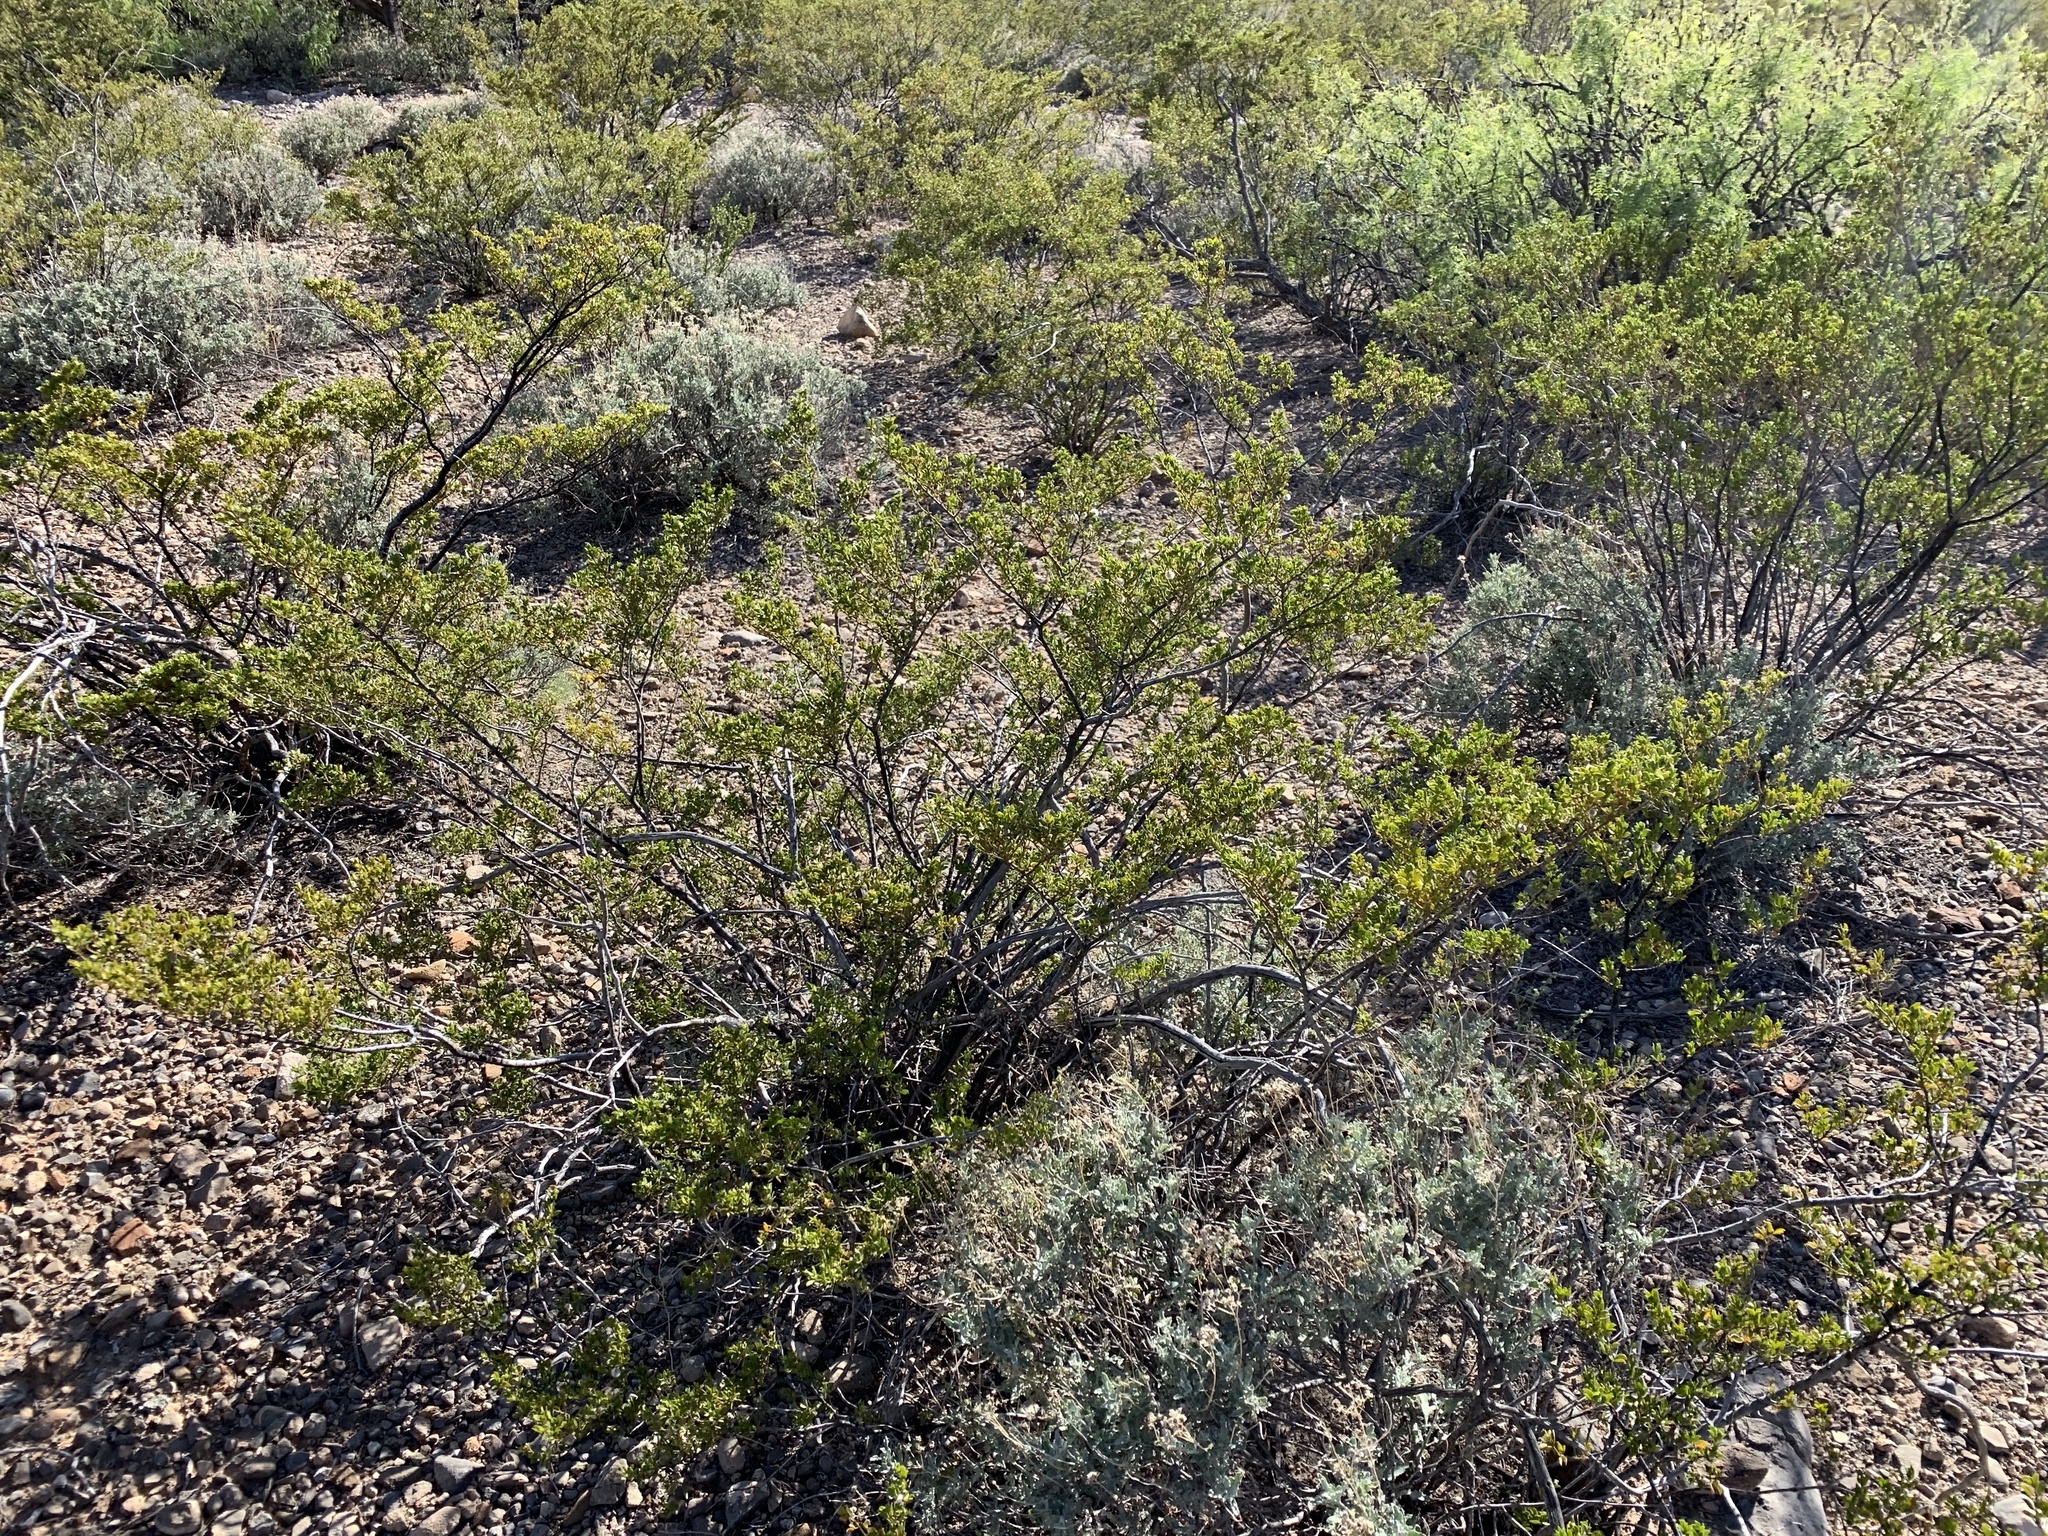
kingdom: Plantae
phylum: Tracheophyta
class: Magnoliopsida
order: Zygophyllales
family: Zygophyllaceae
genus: Larrea
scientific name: Larrea tridentata
